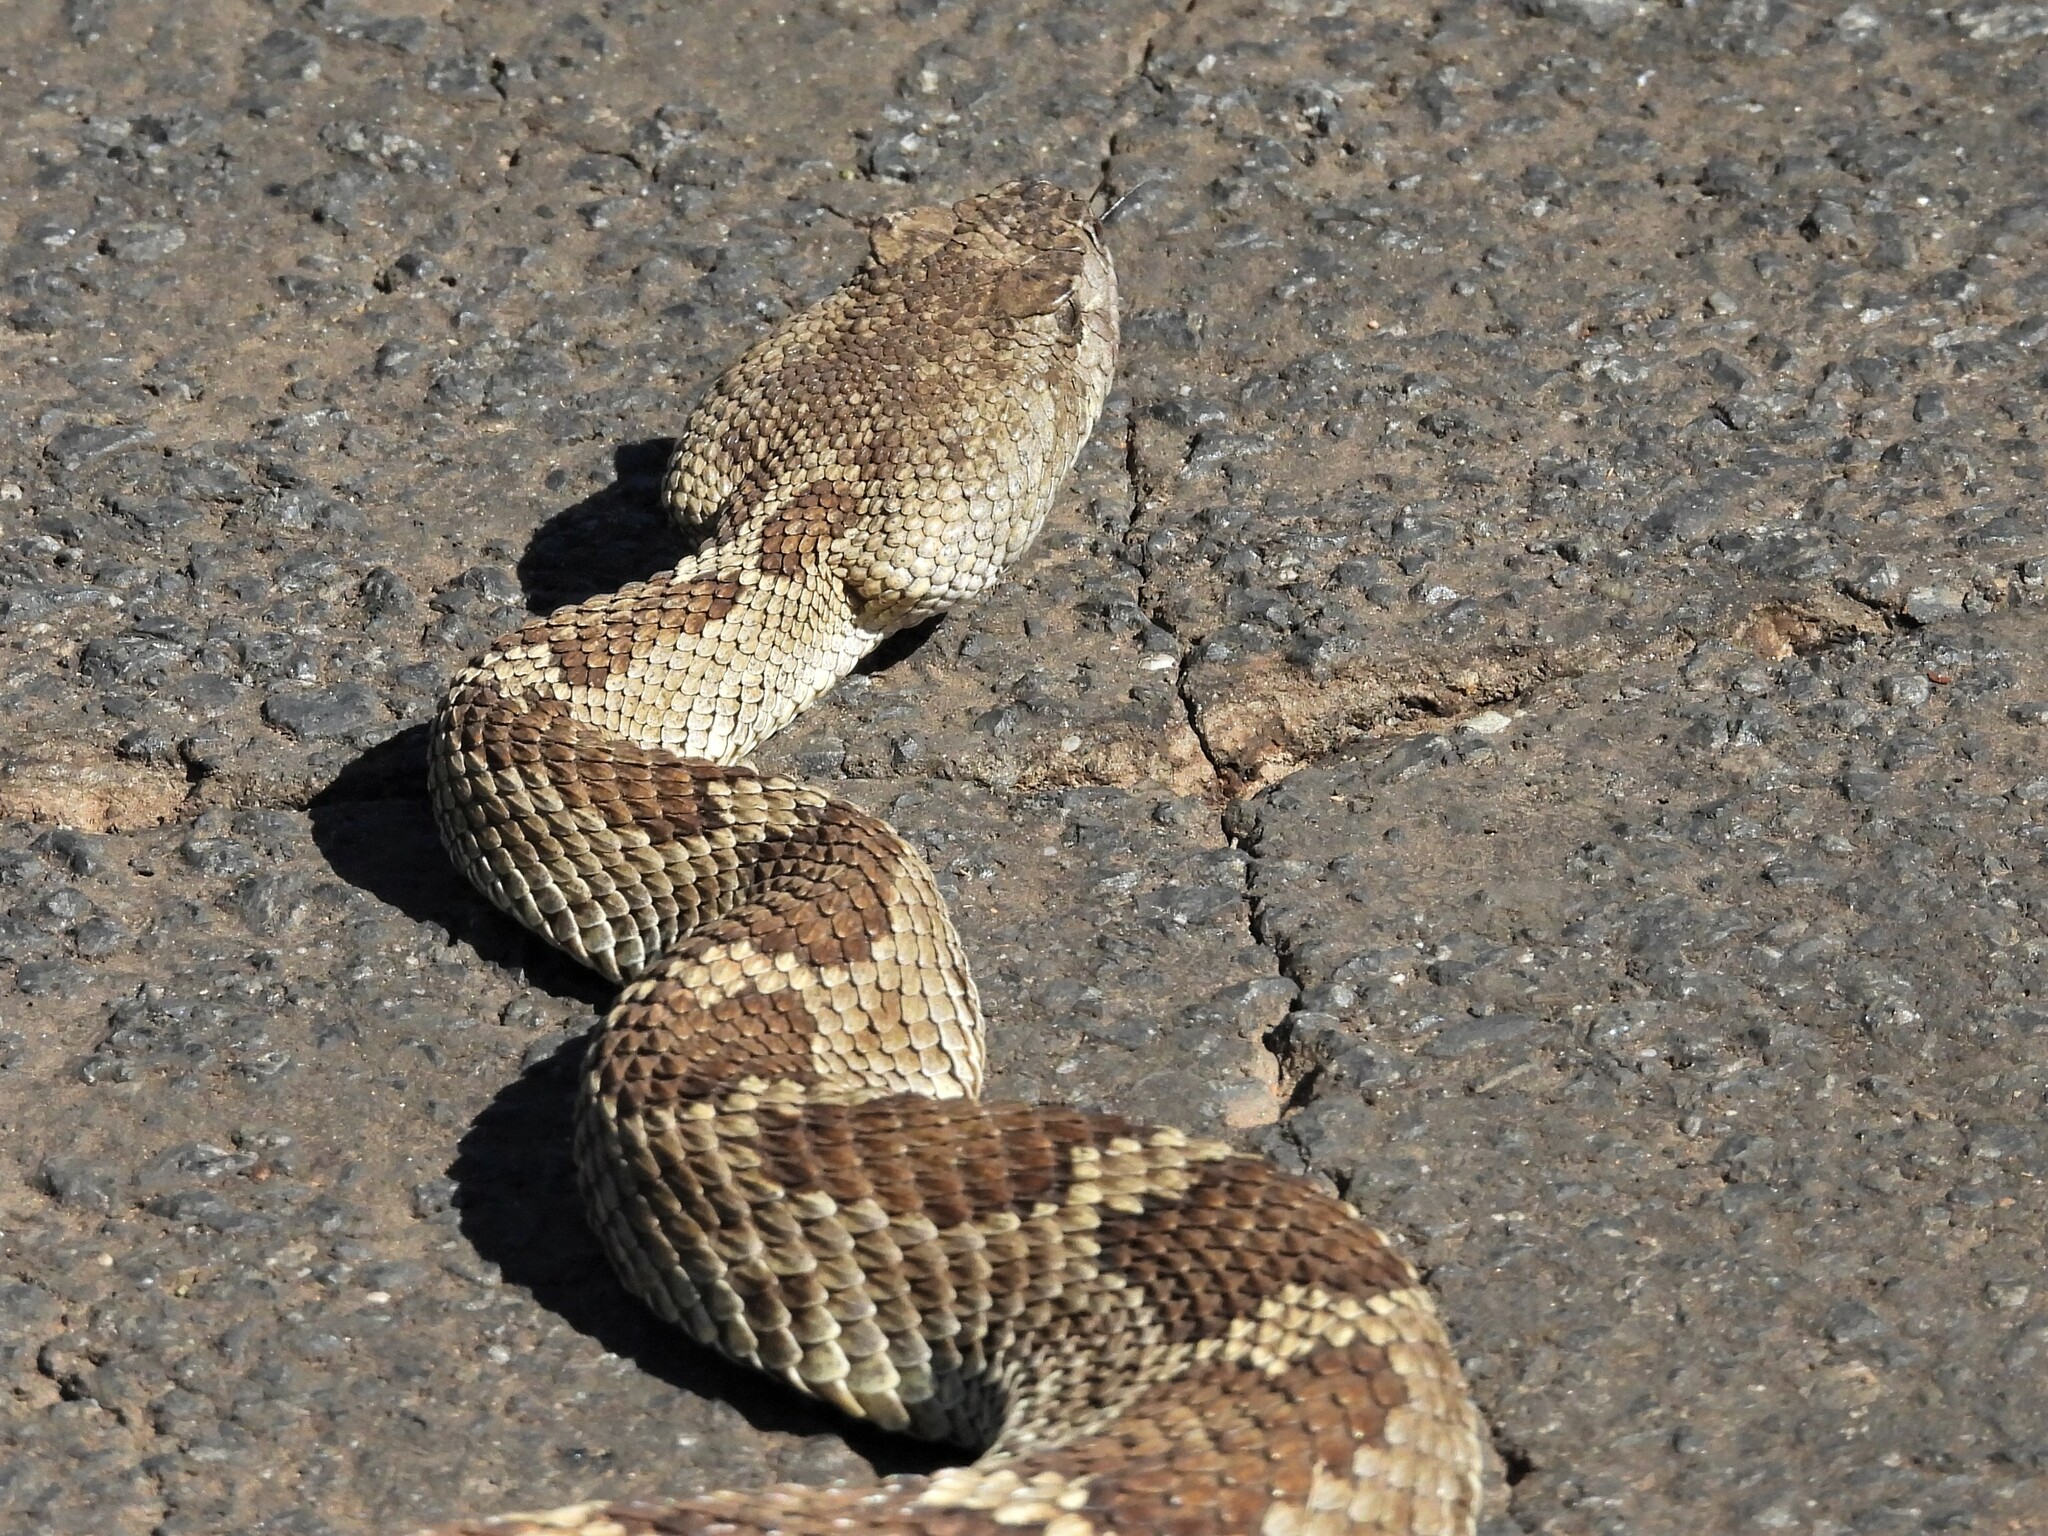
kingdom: Animalia
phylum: Chordata
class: Squamata
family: Viperidae
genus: Crotalus
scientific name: Crotalus oreganus
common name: Abyssus
